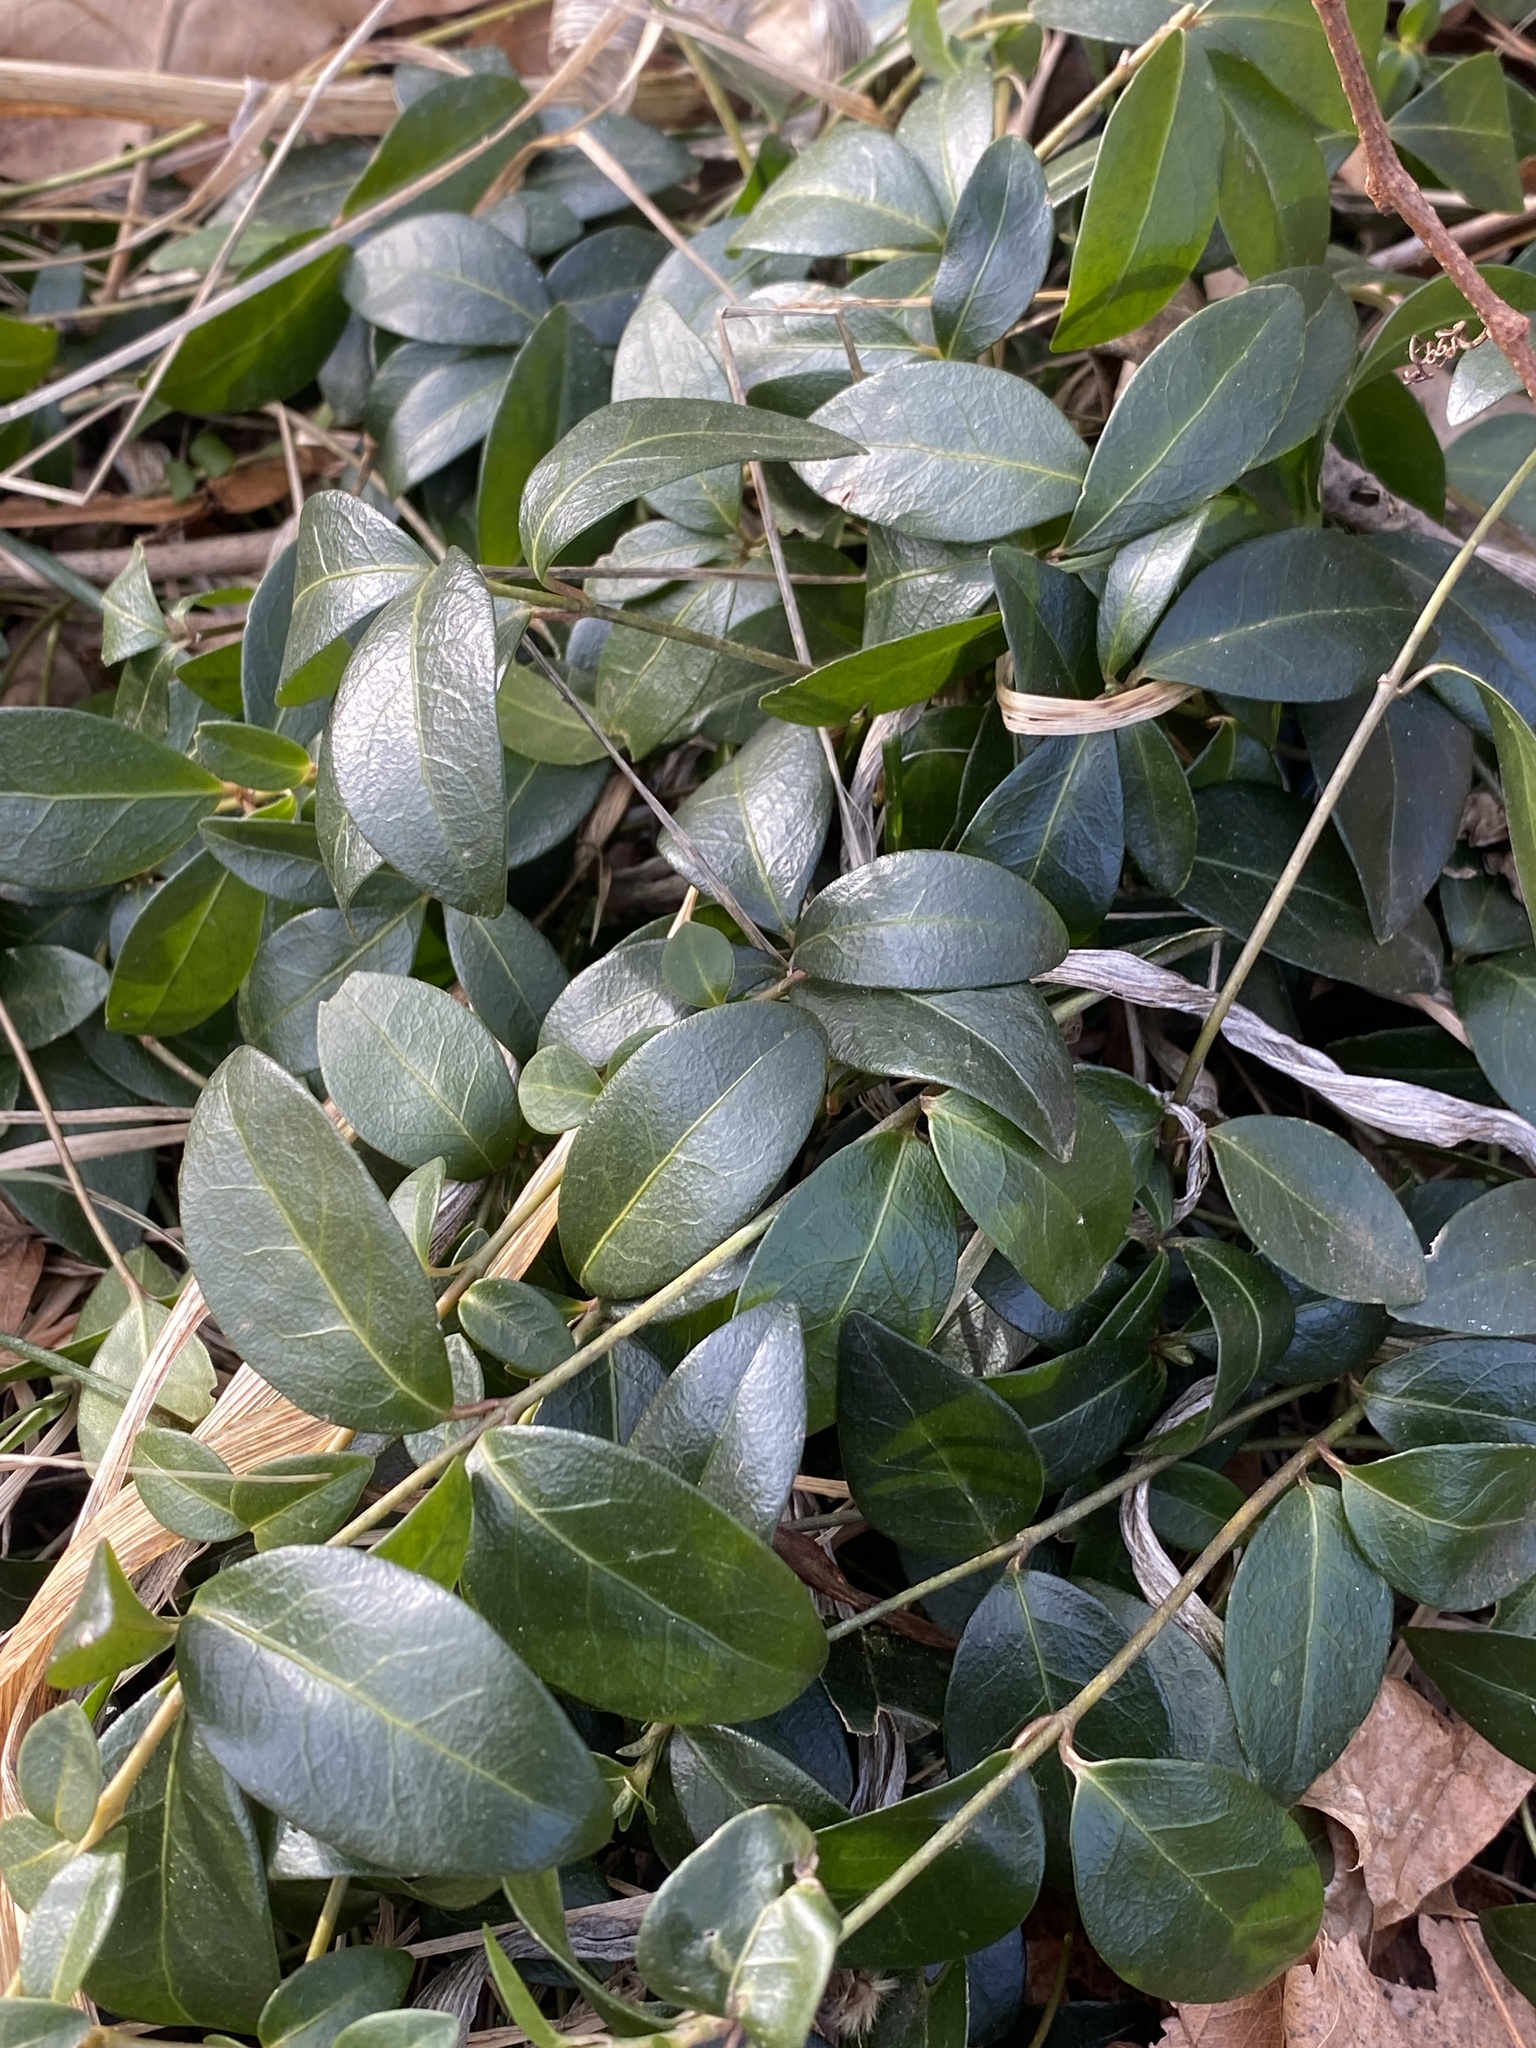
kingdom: Plantae
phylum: Tracheophyta
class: Magnoliopsida
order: Gentianales
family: Apocynaceae
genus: Vinca
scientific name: Vinca minor
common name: Lesser periwinkle
